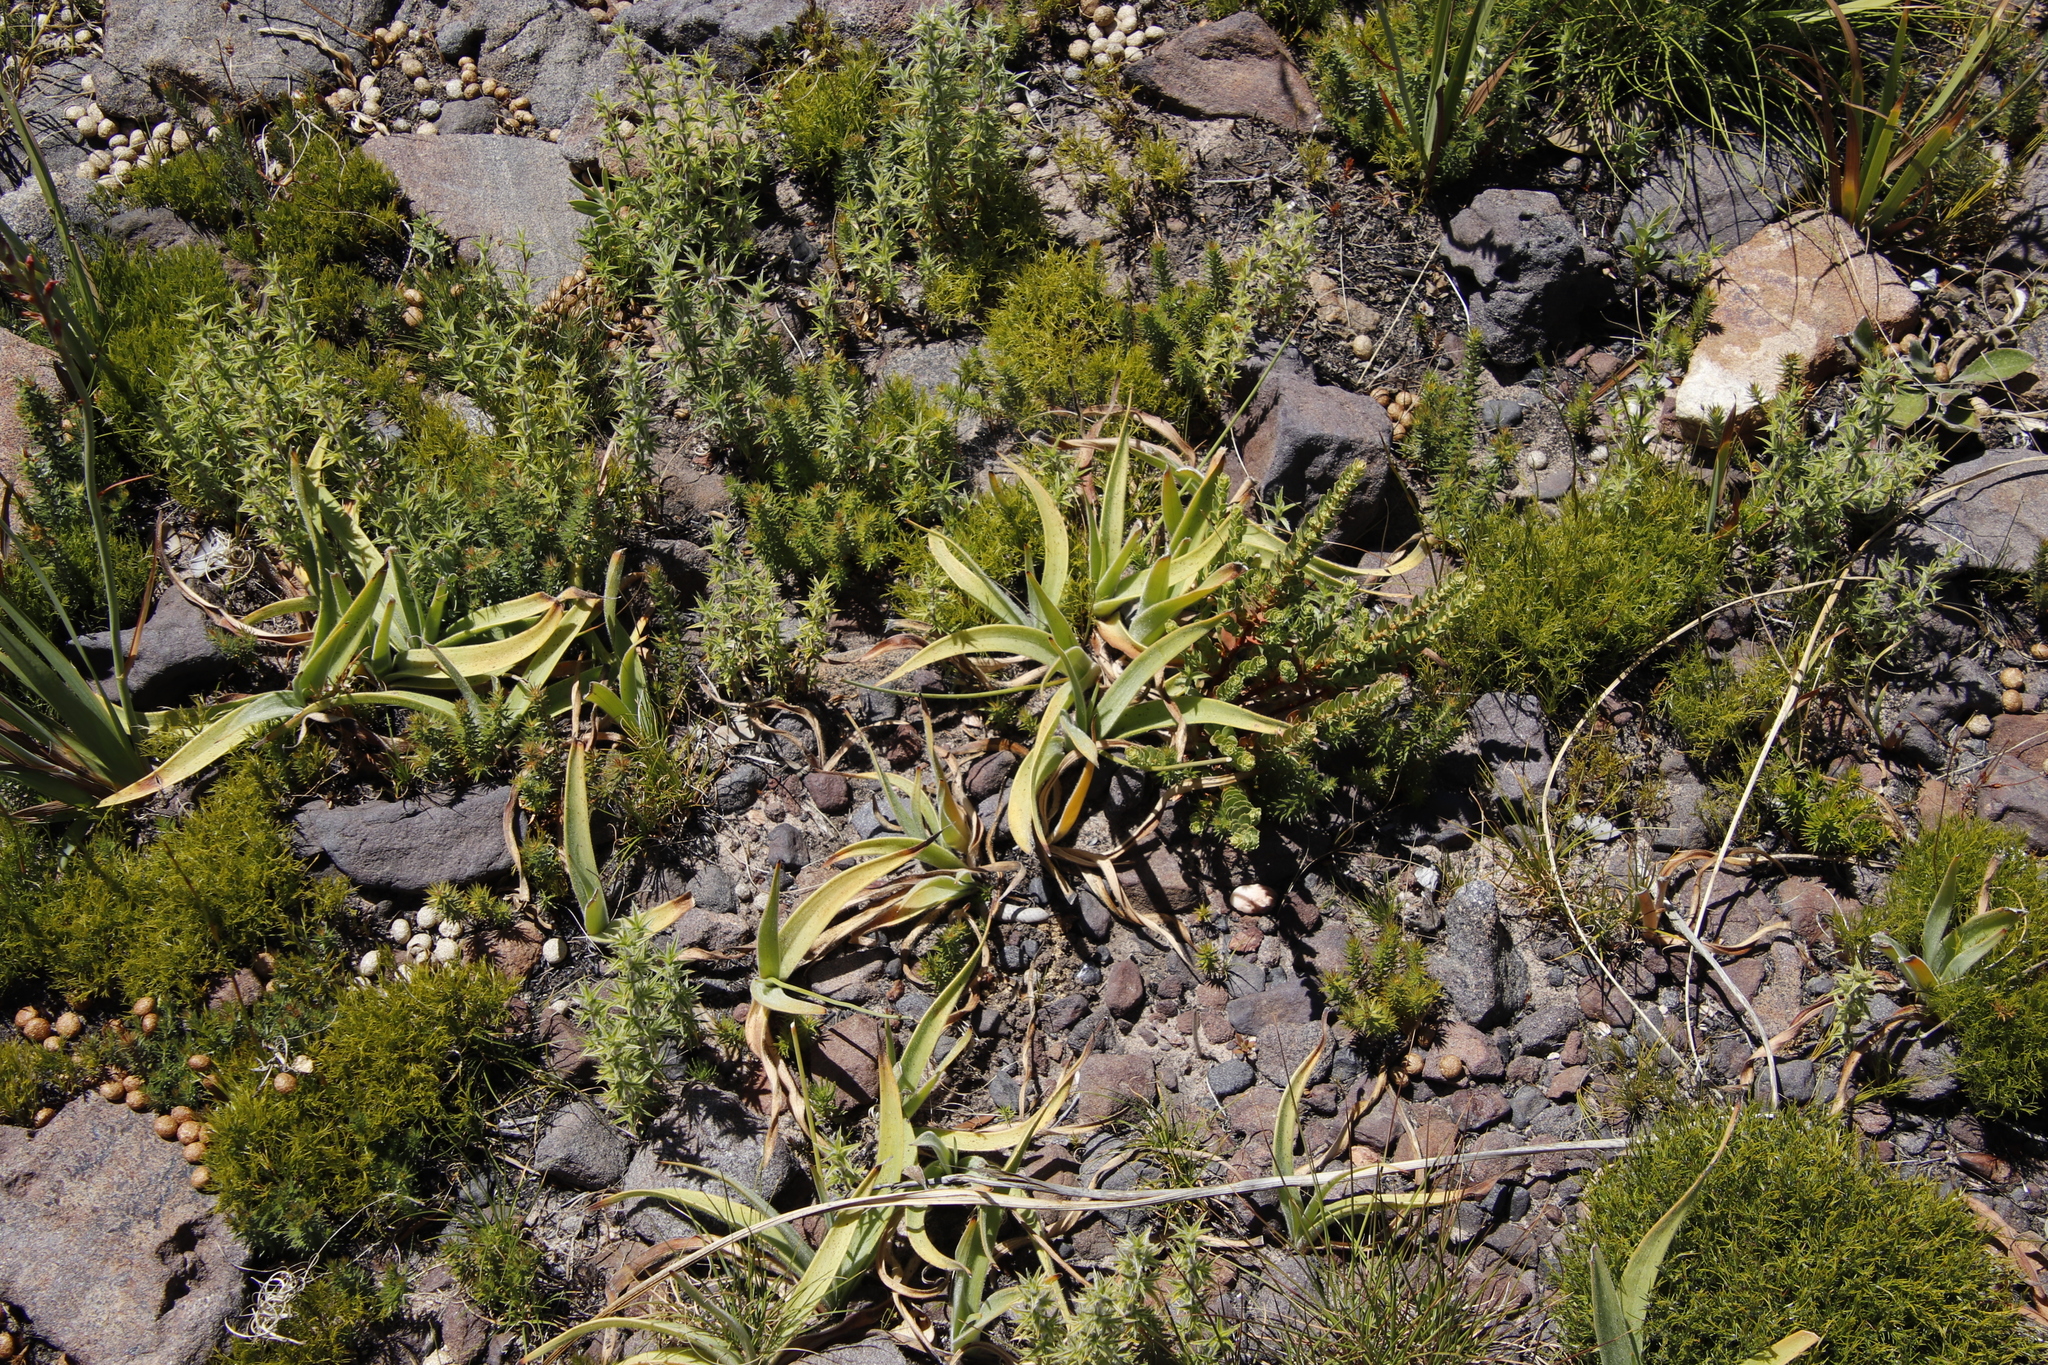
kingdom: Plantae
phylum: Tracheophyta
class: Liliopsida
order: Asparagales
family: Asparagaceae
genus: Drimia
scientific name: Drimia capensis
